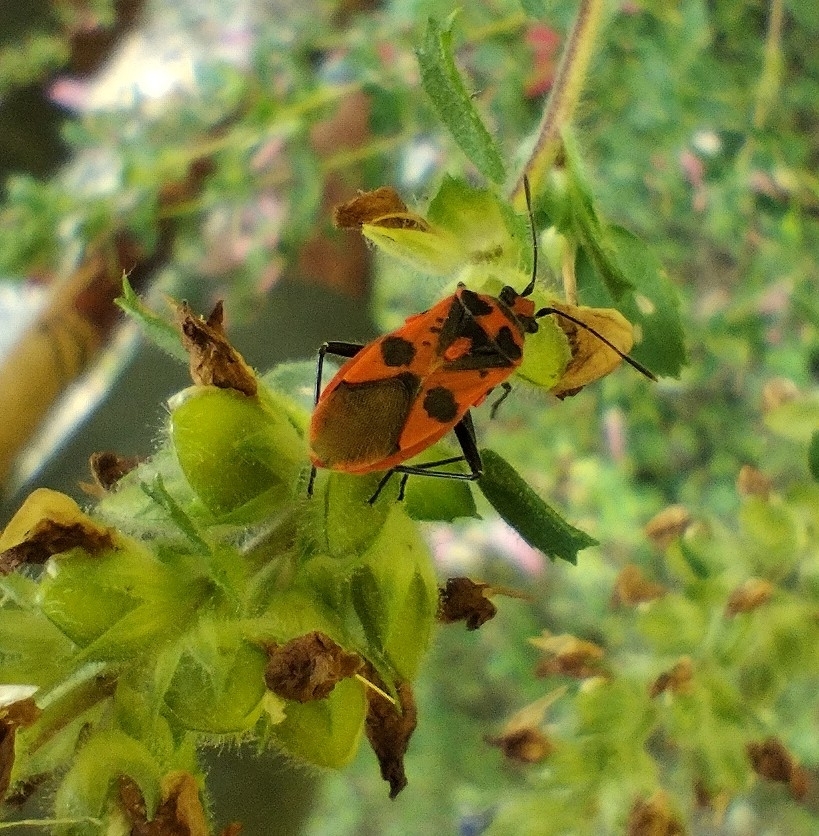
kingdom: Animalia
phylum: Arthropoda
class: Insecta
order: Hemiptera
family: Rhopalidae
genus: Corizus
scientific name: Corizus hyoscyami
